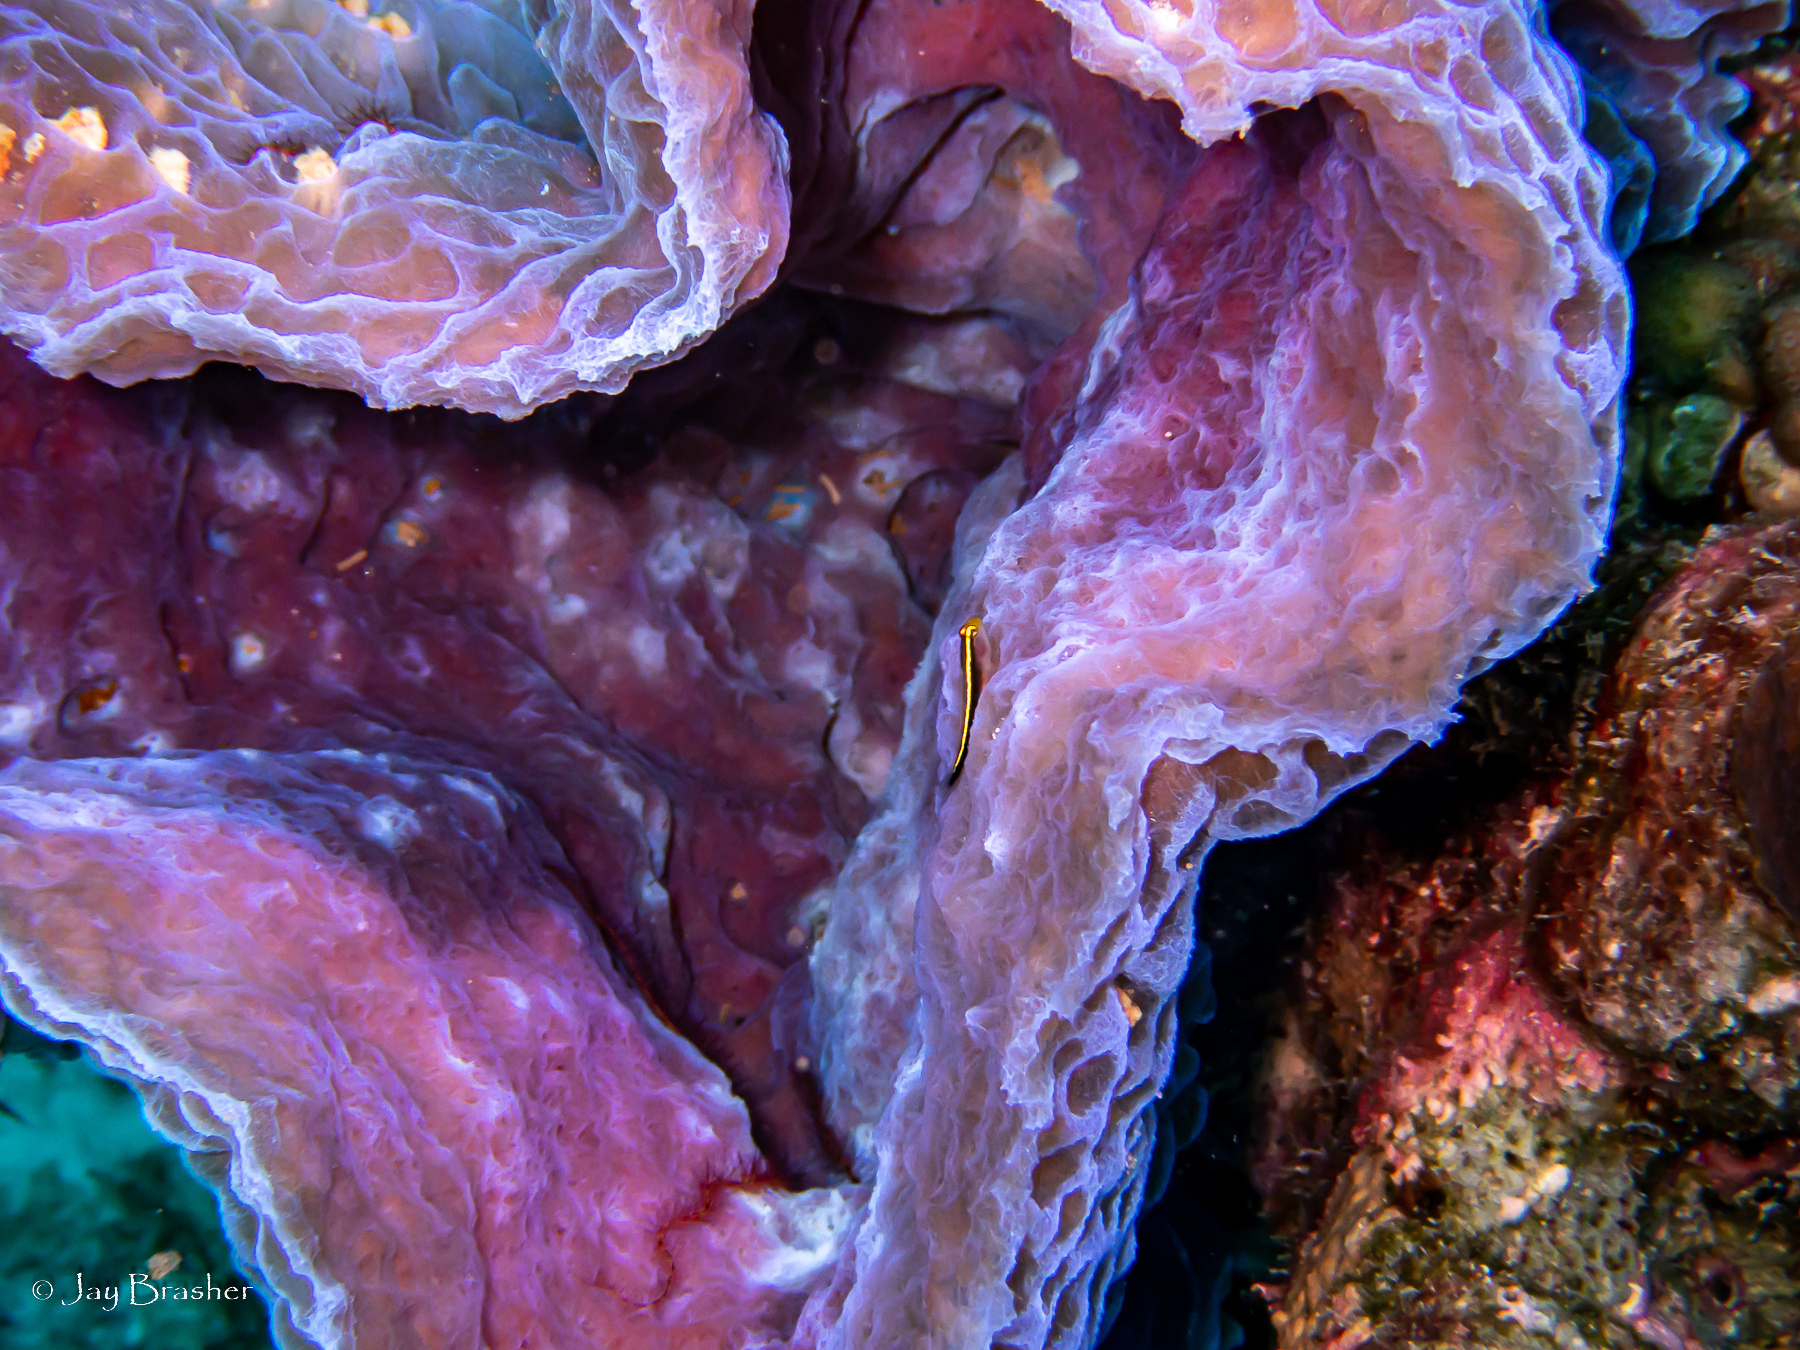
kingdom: Animalia
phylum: Porifera
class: Demospongiae
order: Haplosclerida
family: Callyspongiidae
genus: Callyspongia
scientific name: Callyspongia plicifera
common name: Azure vase sponge
